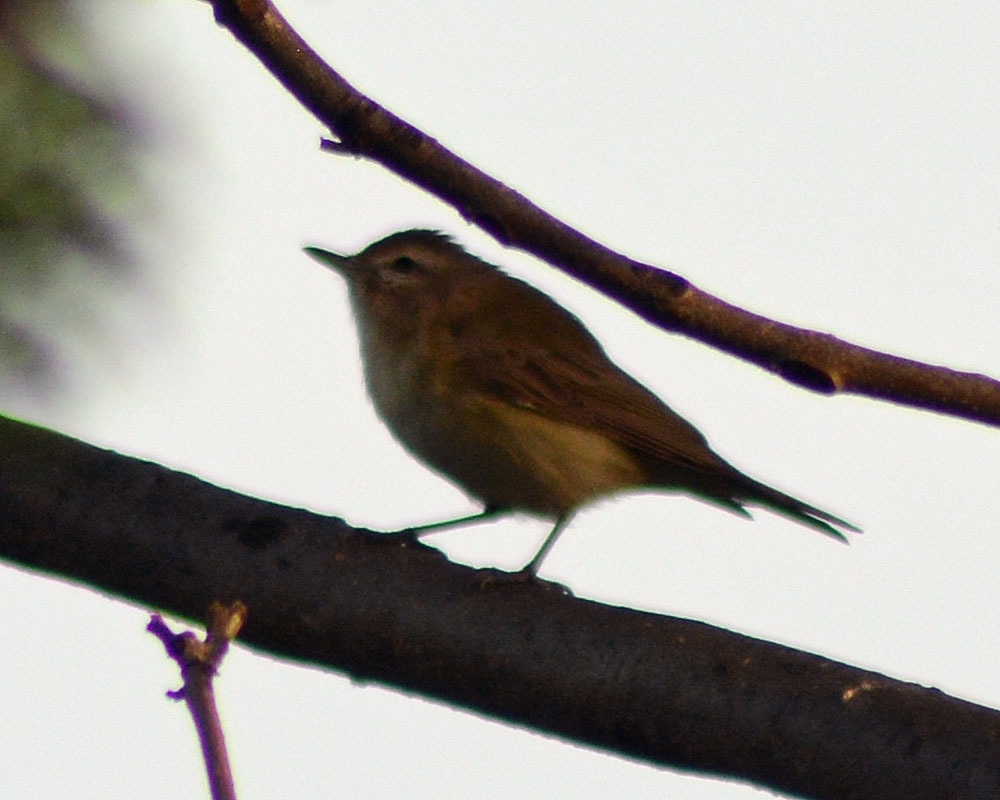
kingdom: Animalia
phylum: Chordata
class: Aves
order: Passeriformes
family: Vireonidae
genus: Vireo
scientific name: Vireo gilvus
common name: Warbling vireo
